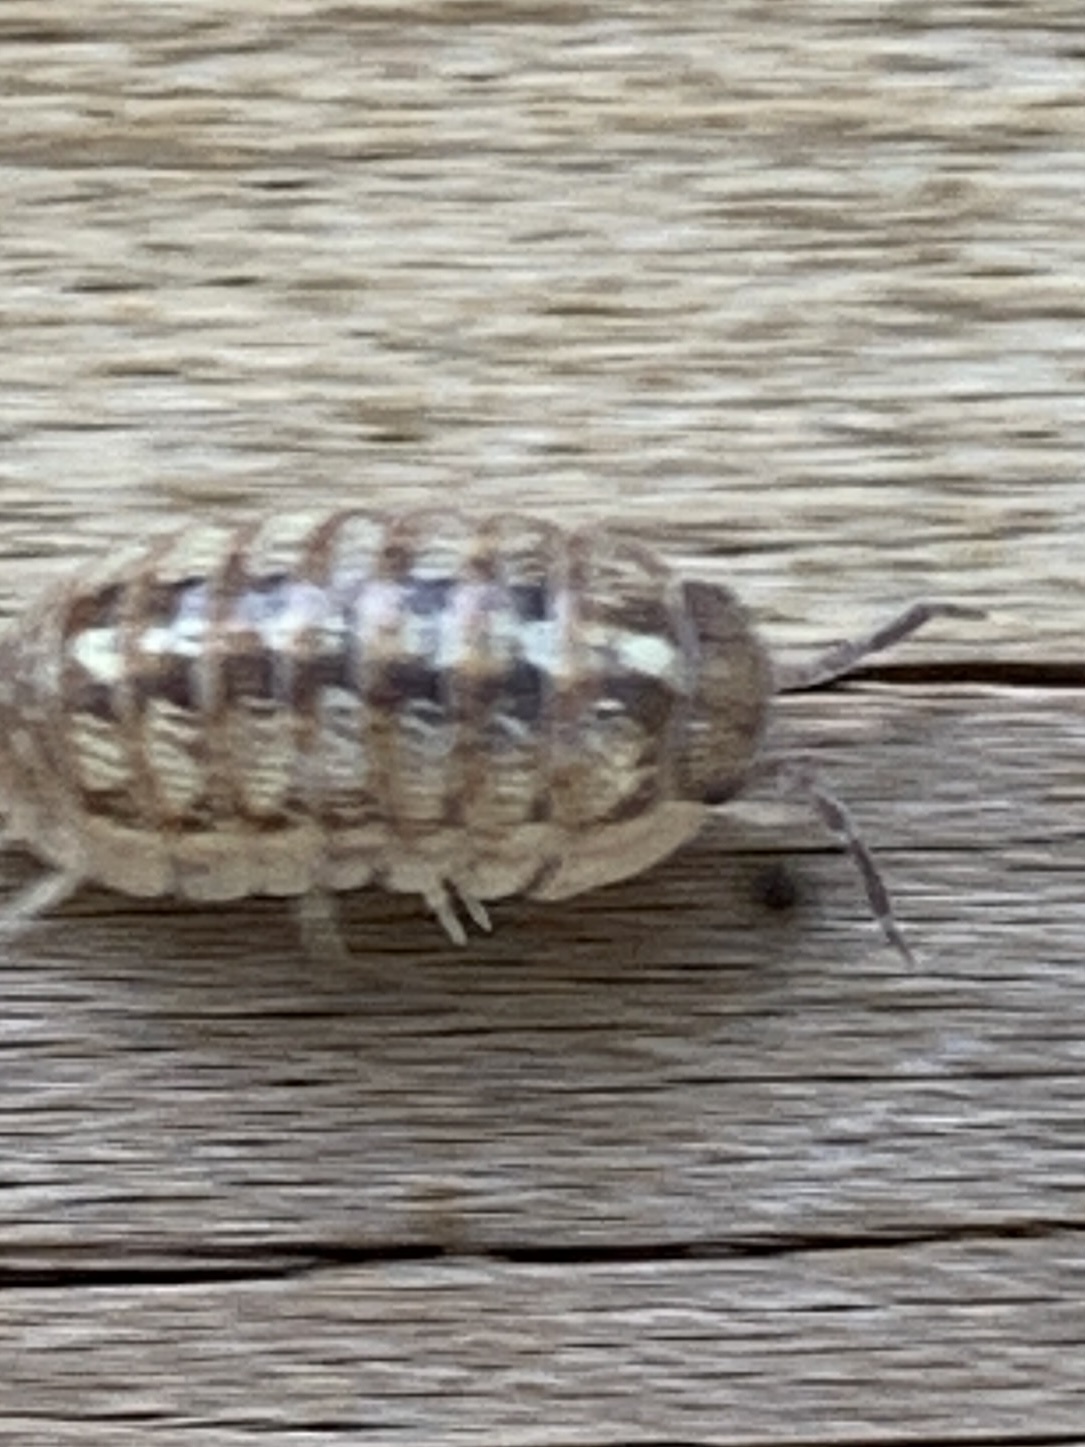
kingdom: Animalia
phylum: Arthropoda
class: Malacostraca
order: Isopoda
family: Armadillidiidae
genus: Armadillidium
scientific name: Armadillidium vulgare
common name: Common pill woodlouse
